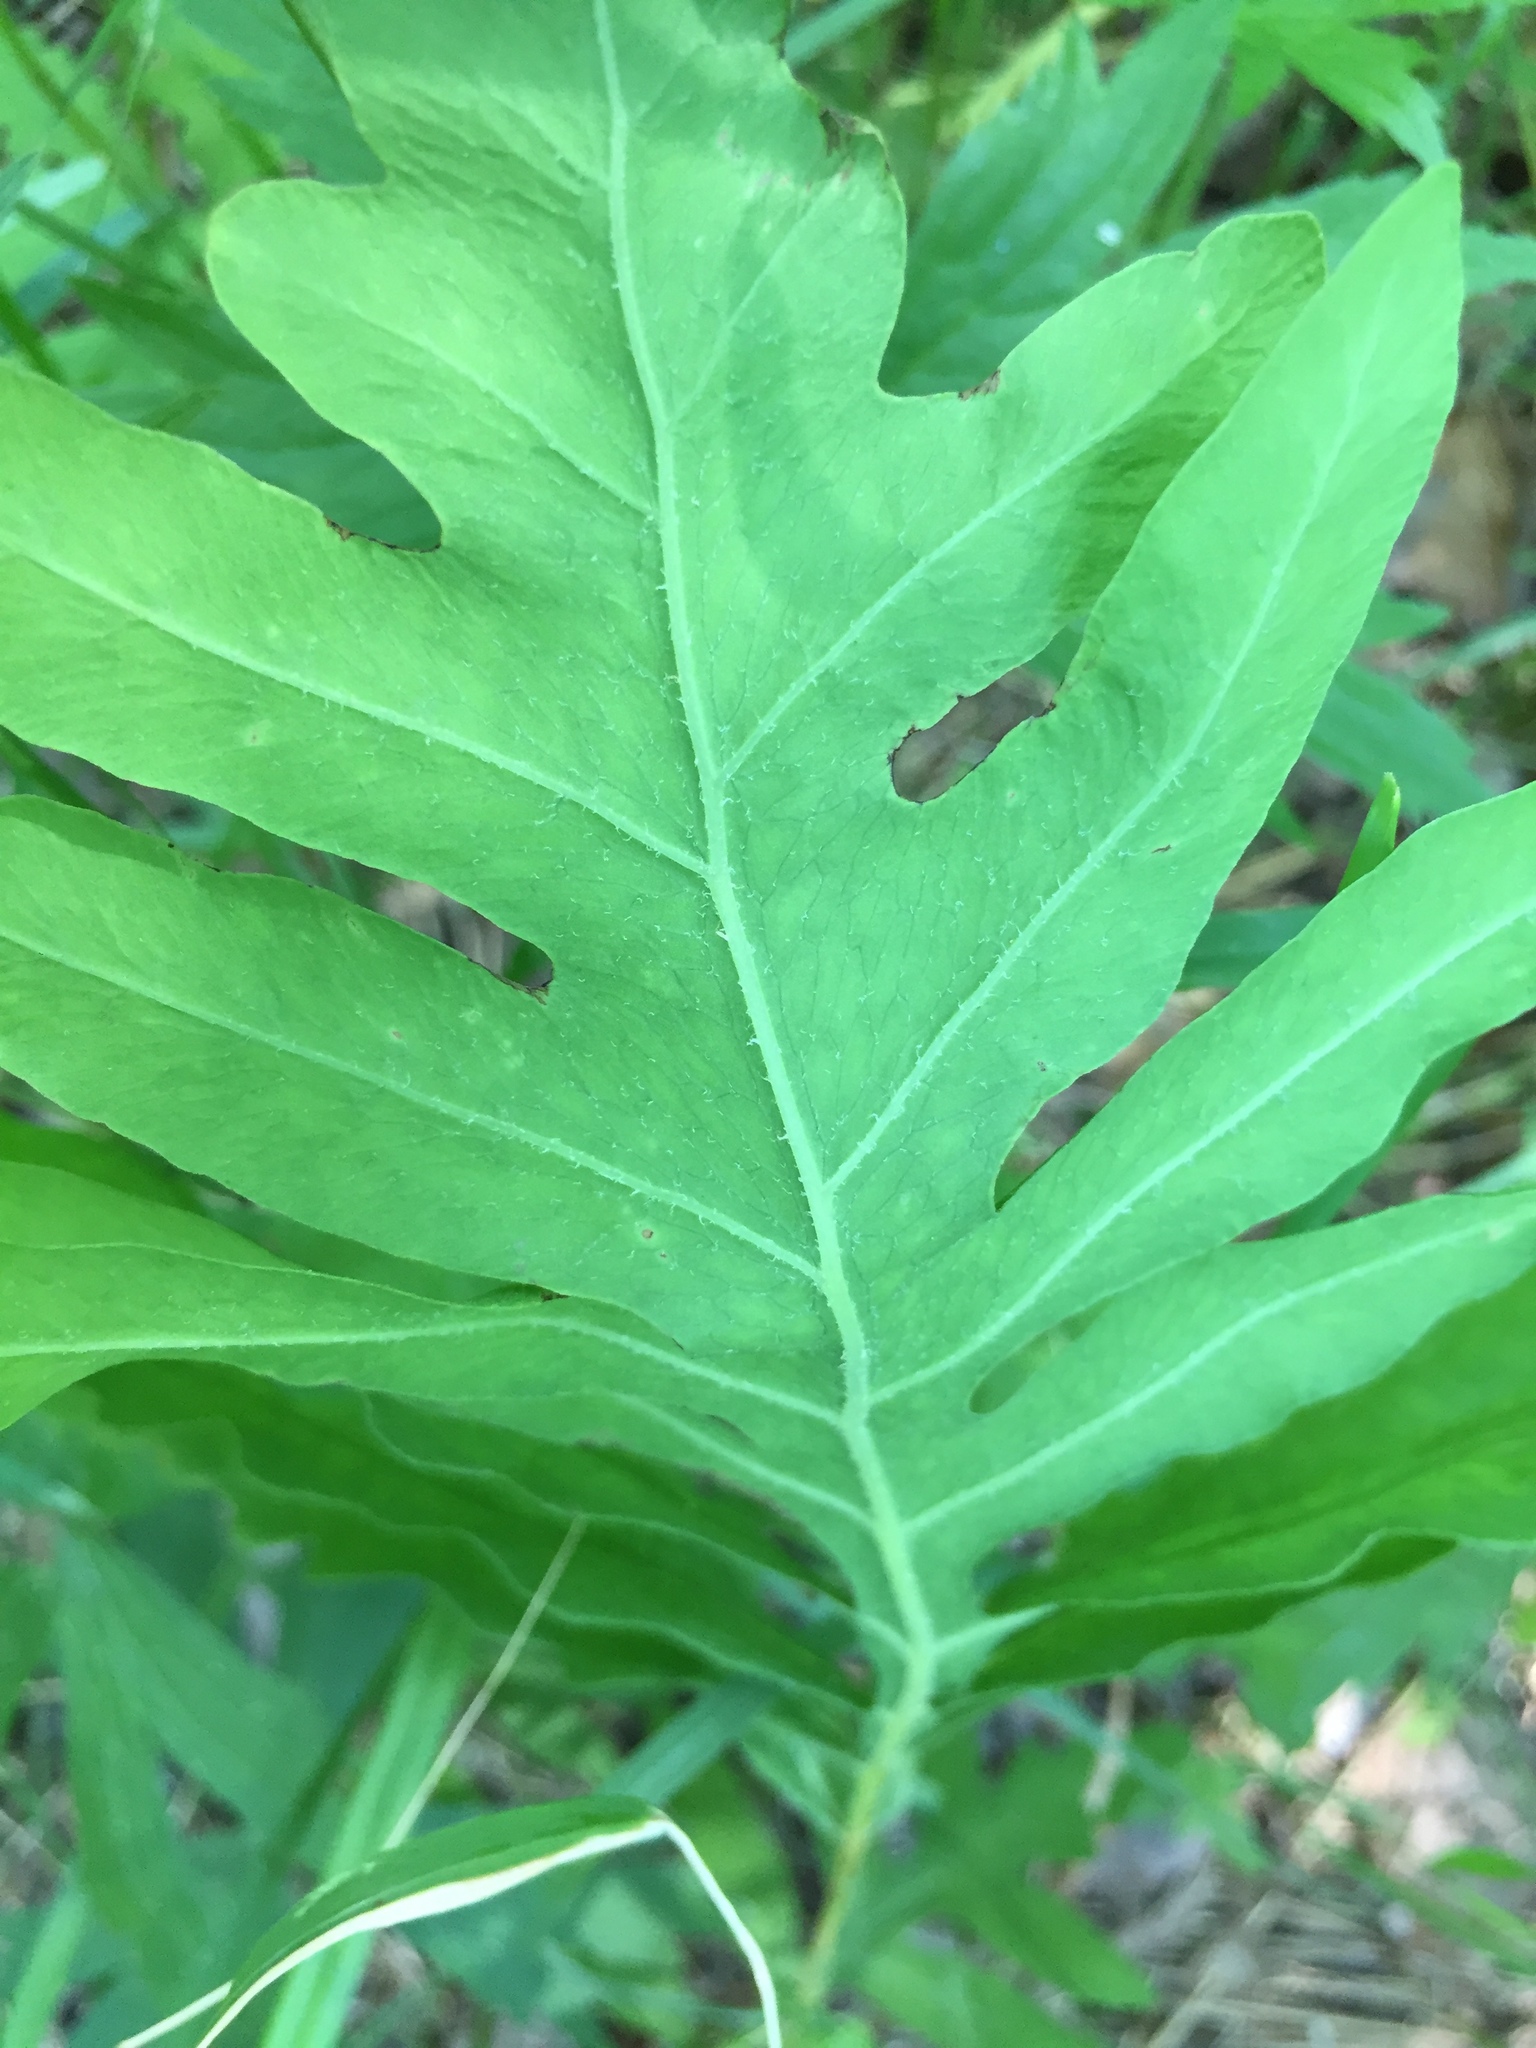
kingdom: Plantae
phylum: Tracheophyta
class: Polypodiopsida
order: Polypodiales
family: Onocleaceae
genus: Onoclea
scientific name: Onoclea sensibilis
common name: Sensitive fern
